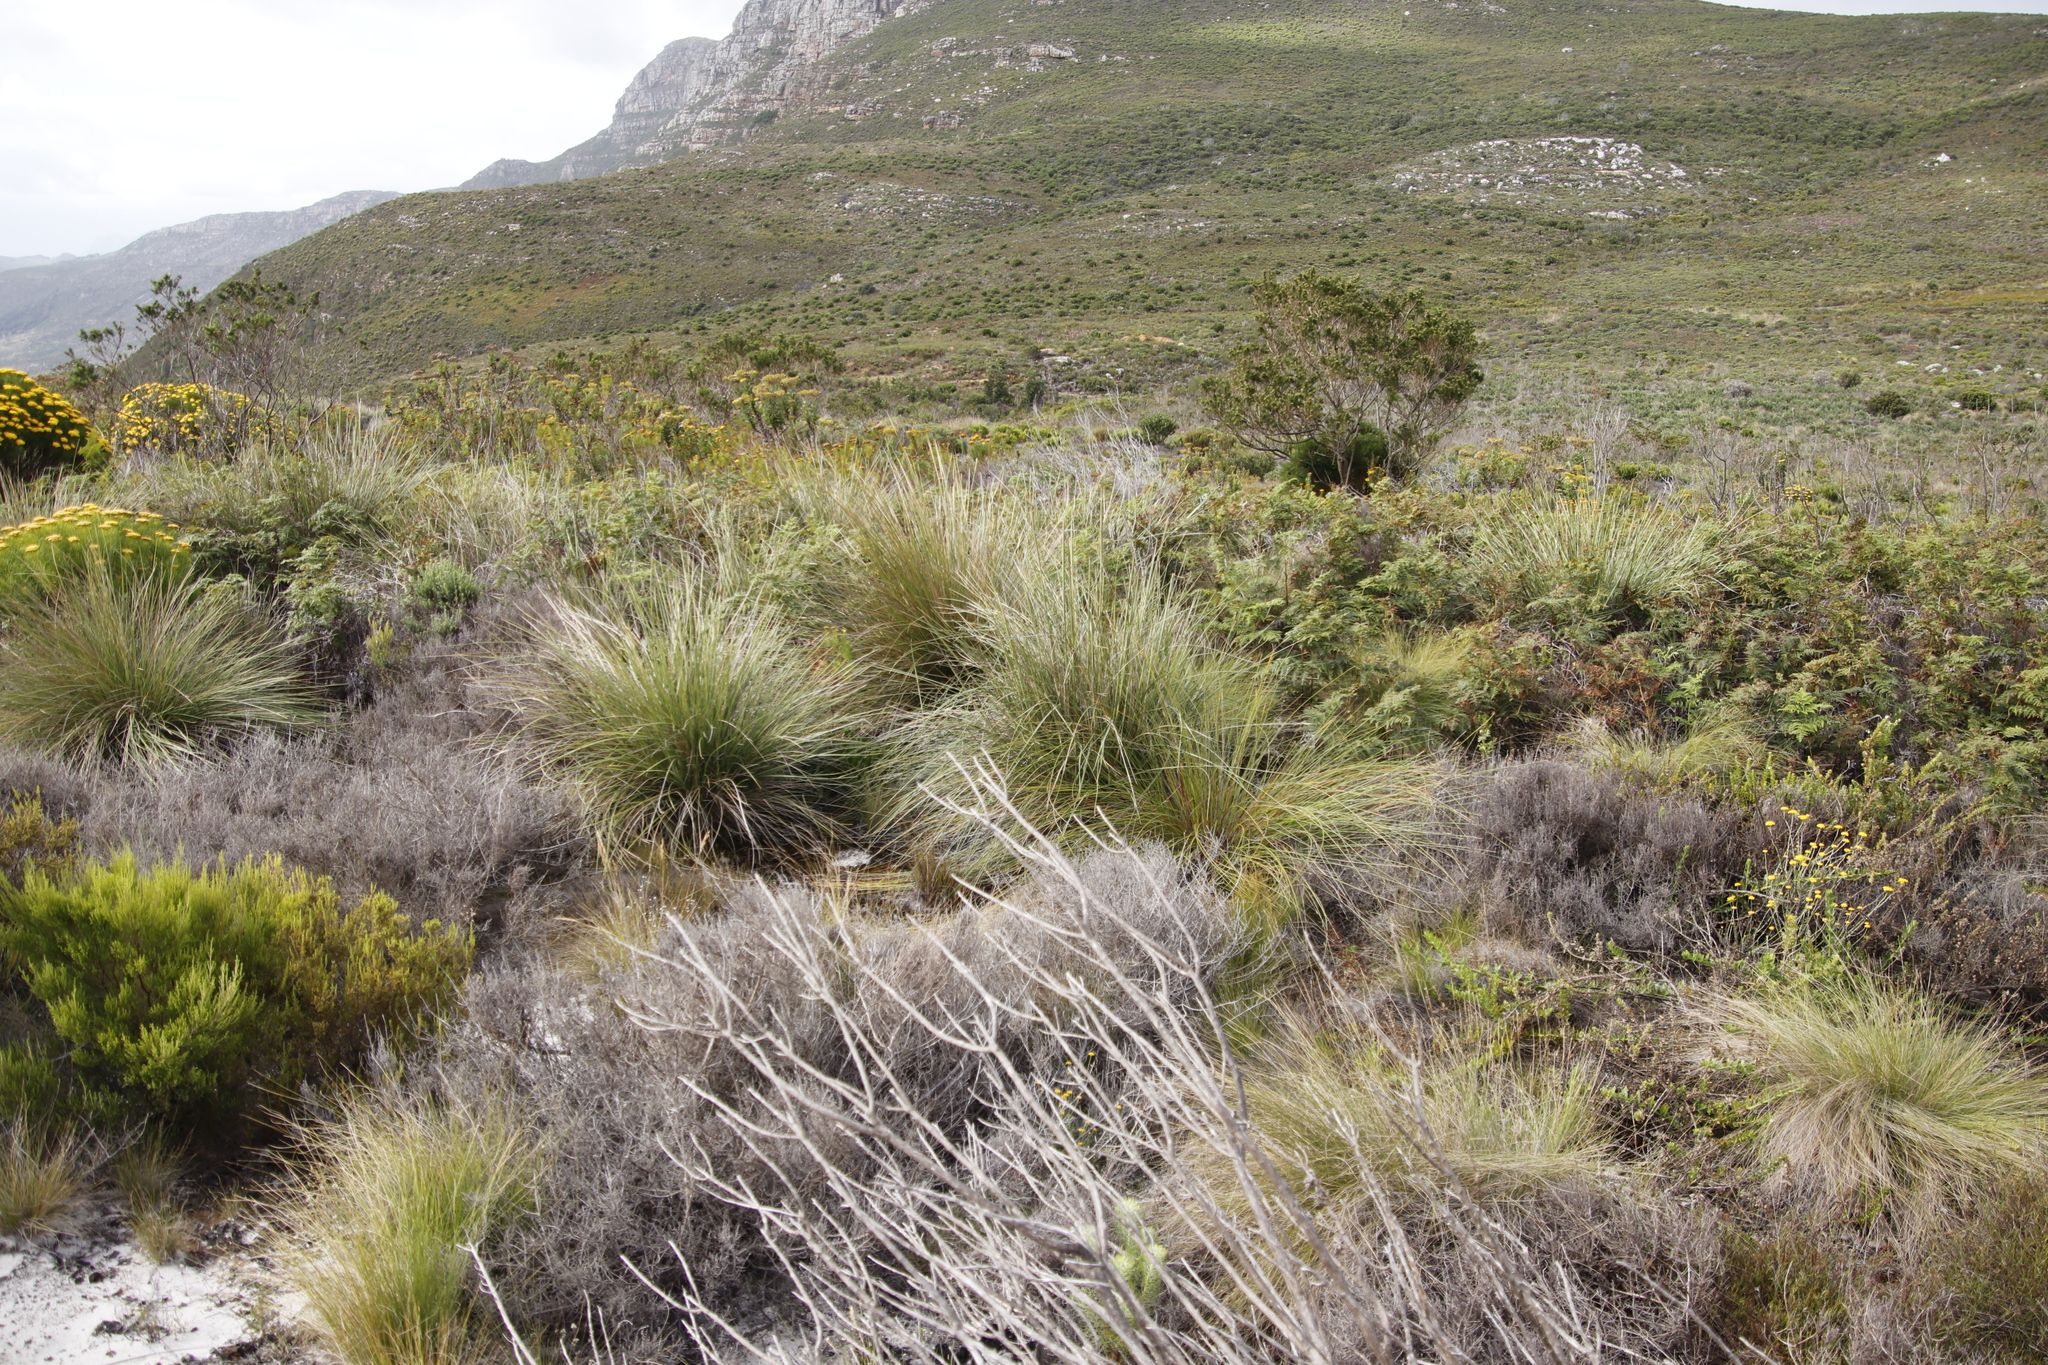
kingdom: Plantae
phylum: Tracheophyta
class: Liliopsida
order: Poales
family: Poaceae
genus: Capeochloa
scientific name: Capeochloa cincta
